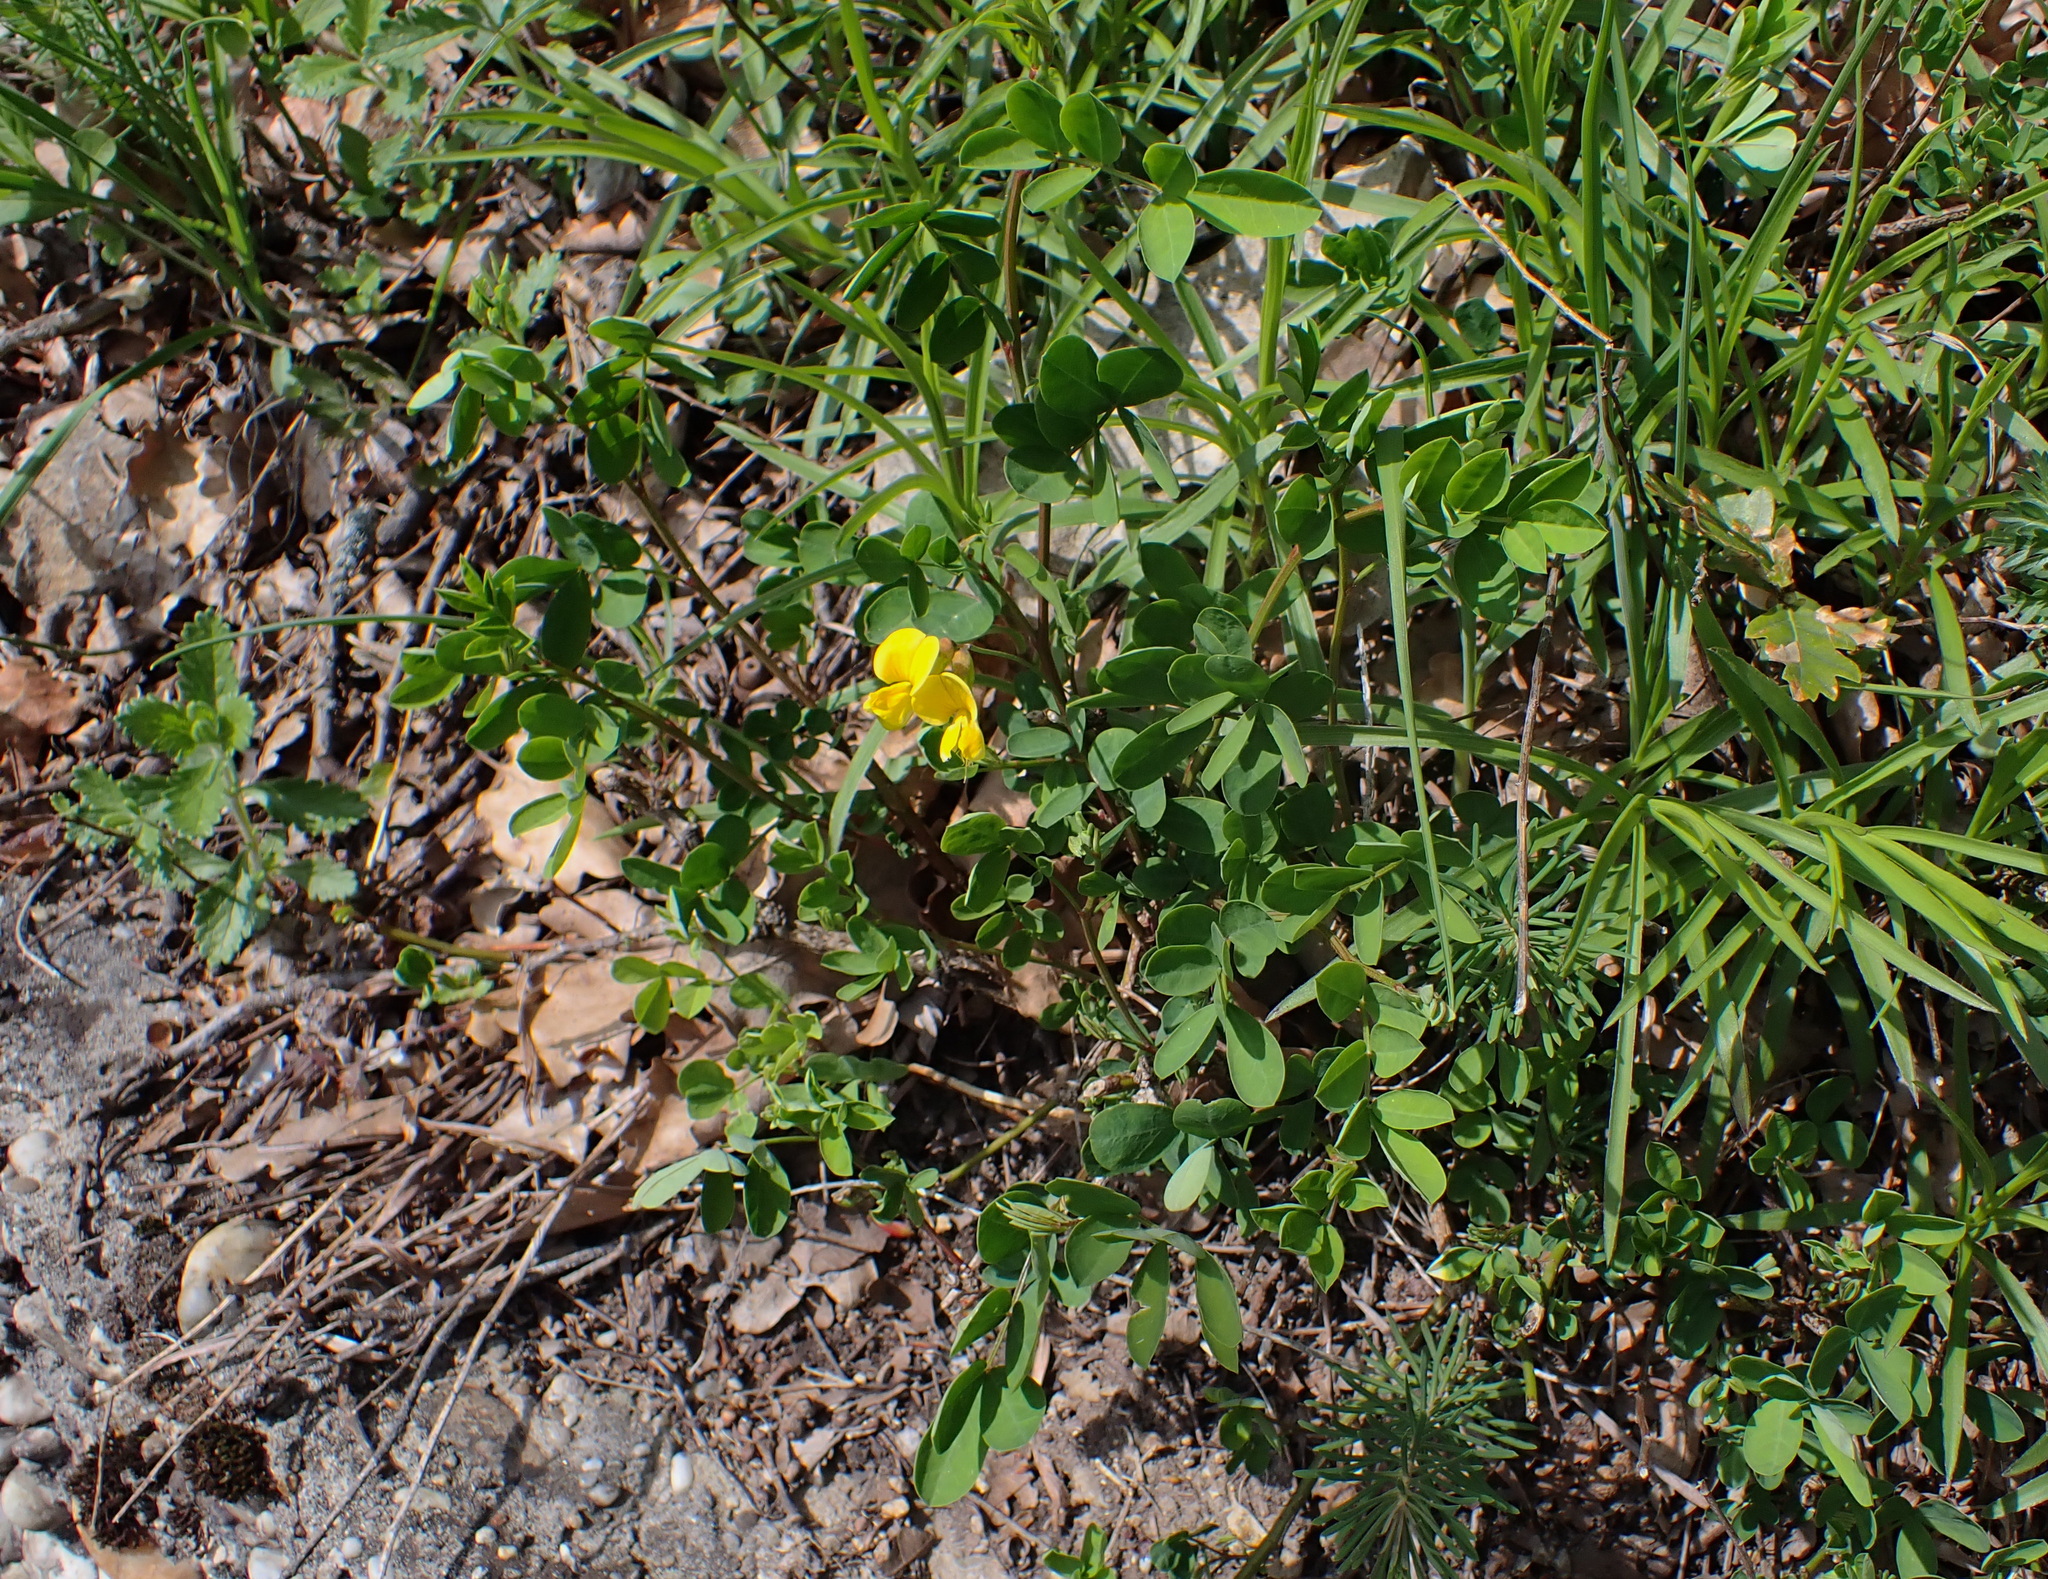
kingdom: Plantae
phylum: Tracheophyta
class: Magnoliopsida
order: Fabales
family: Fabaceae
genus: Hippocrepis
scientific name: Hippocrepis emerus
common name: Scorpion senna
